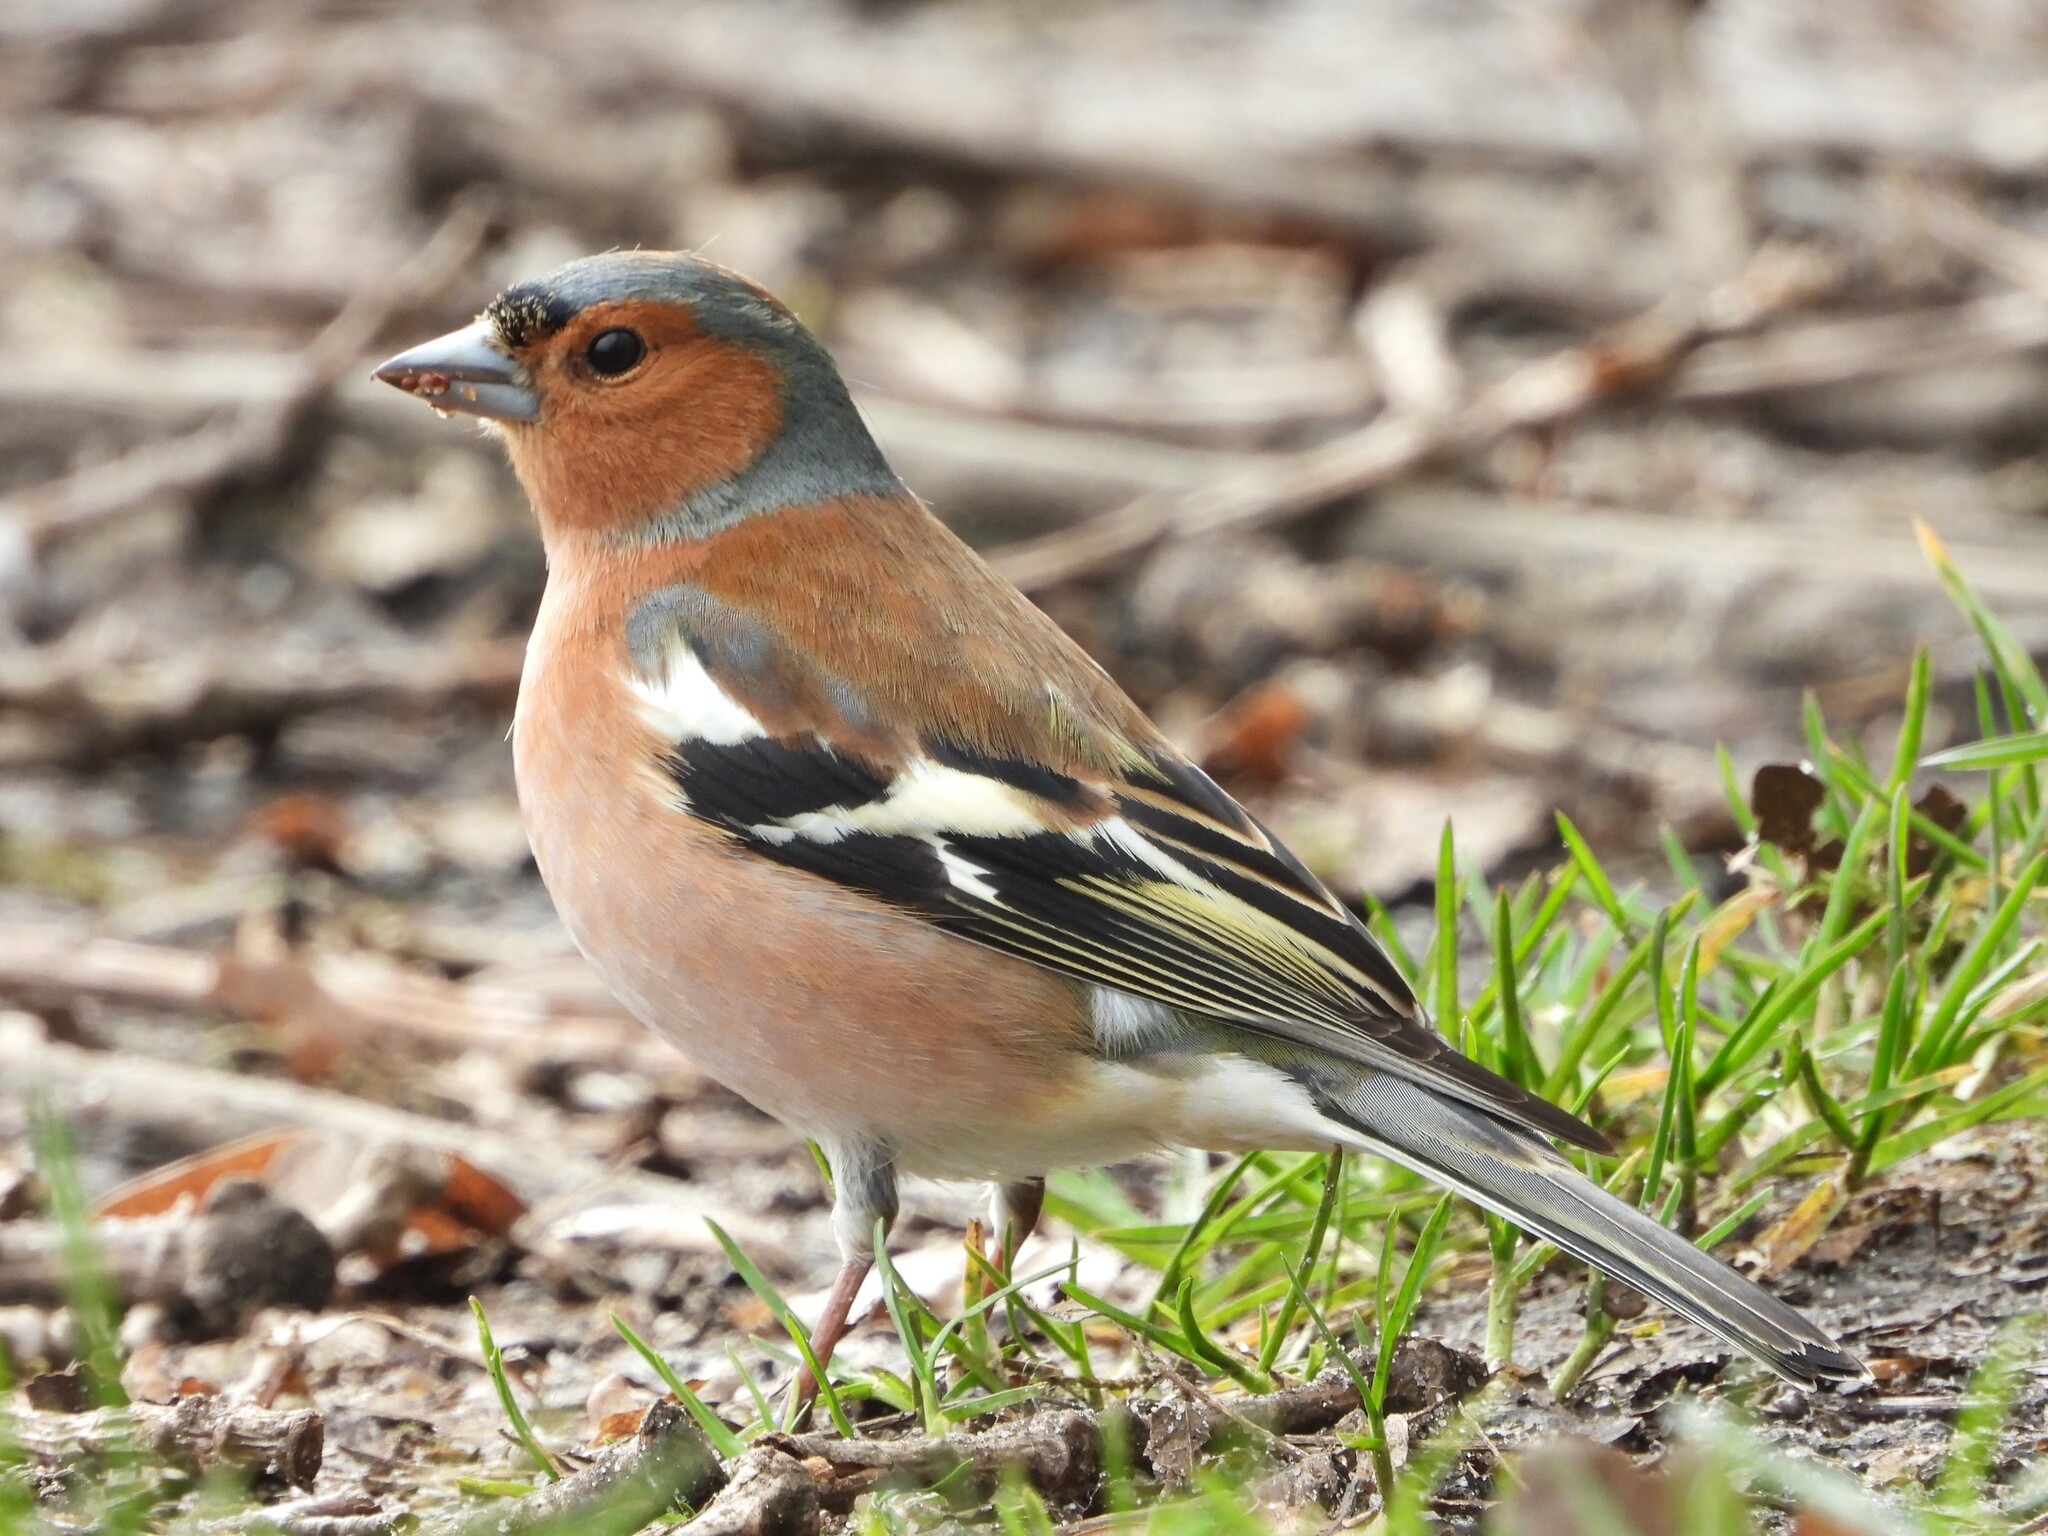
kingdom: Animalia
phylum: Chordata
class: Aves
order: Passeriformes
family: Fringillidae
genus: Fringilla
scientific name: Fringilla coelebs
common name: Common chaffinch
